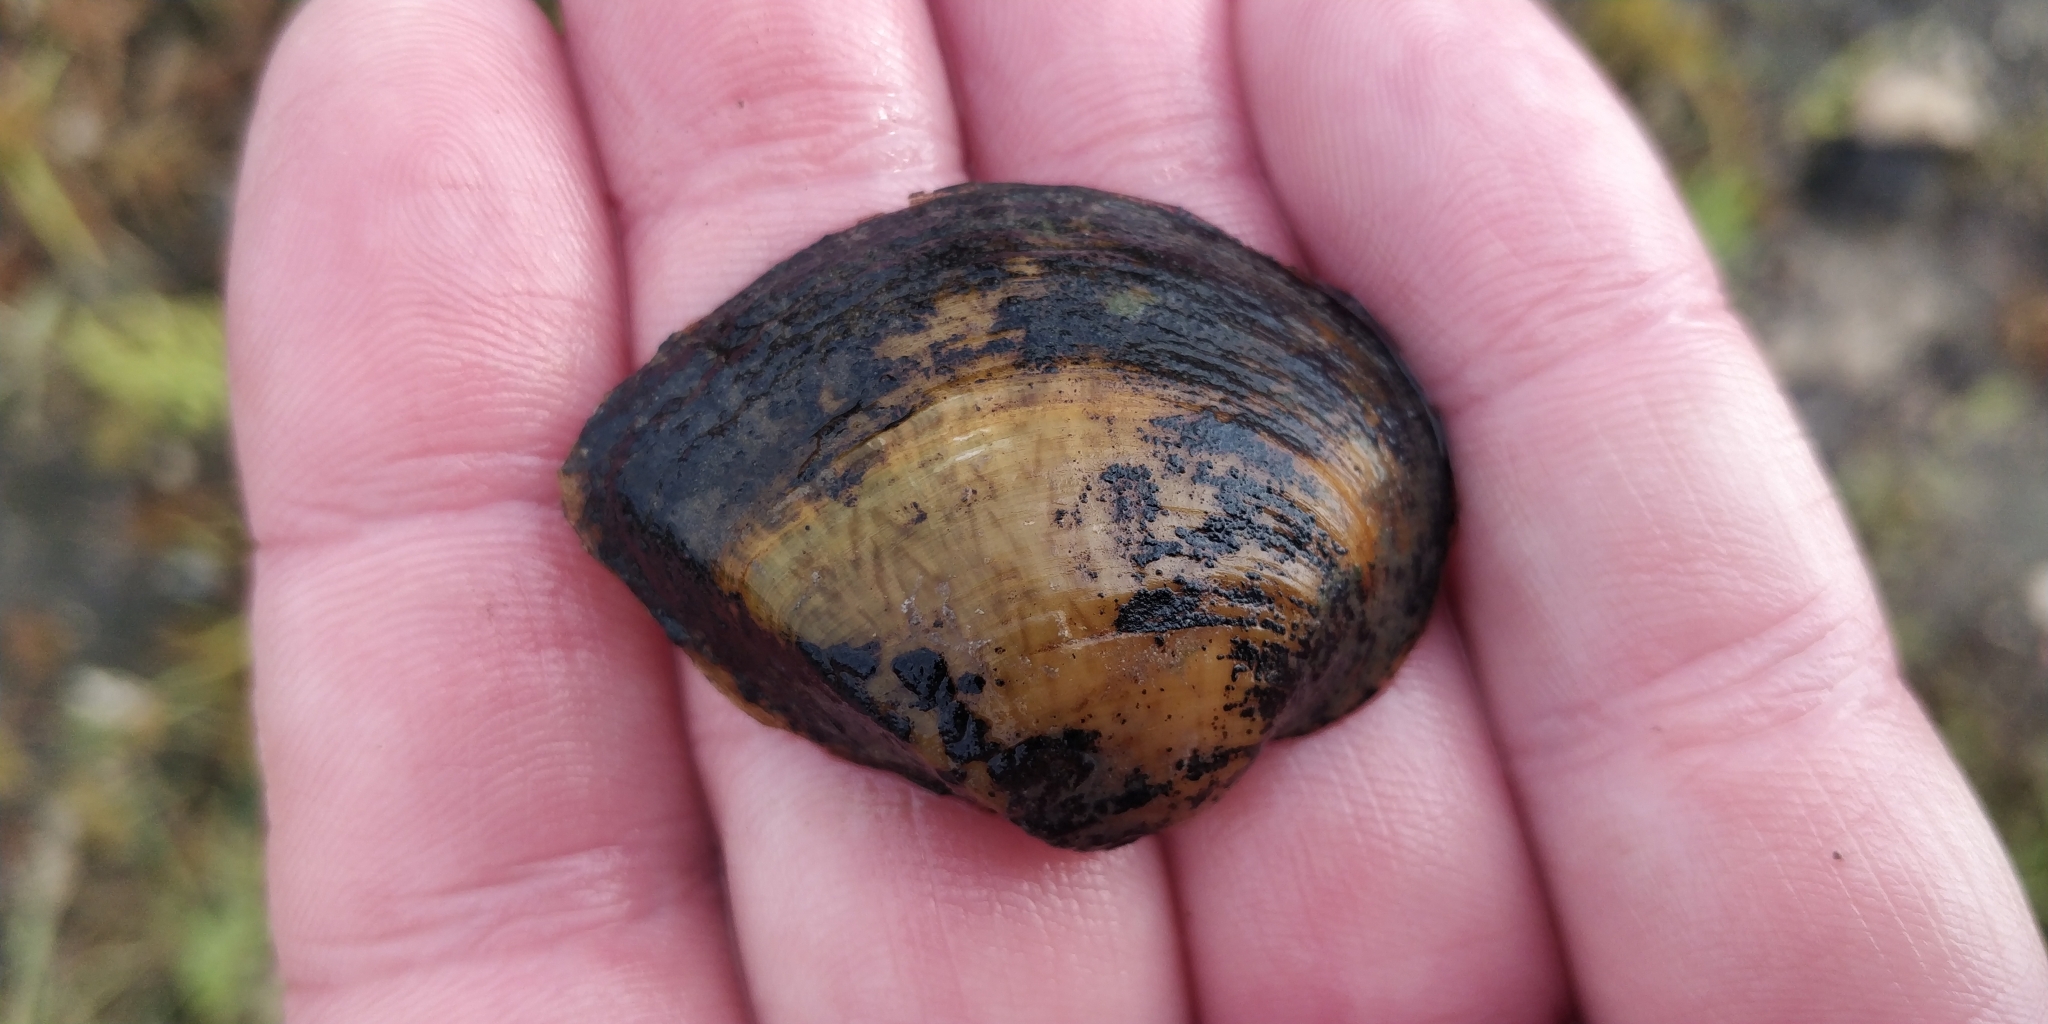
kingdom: Animalia
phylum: Mollusca
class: Bivalvia
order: Unionida
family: Unionidae
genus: Truncilla
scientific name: Truncilla truncata
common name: Deertoe
